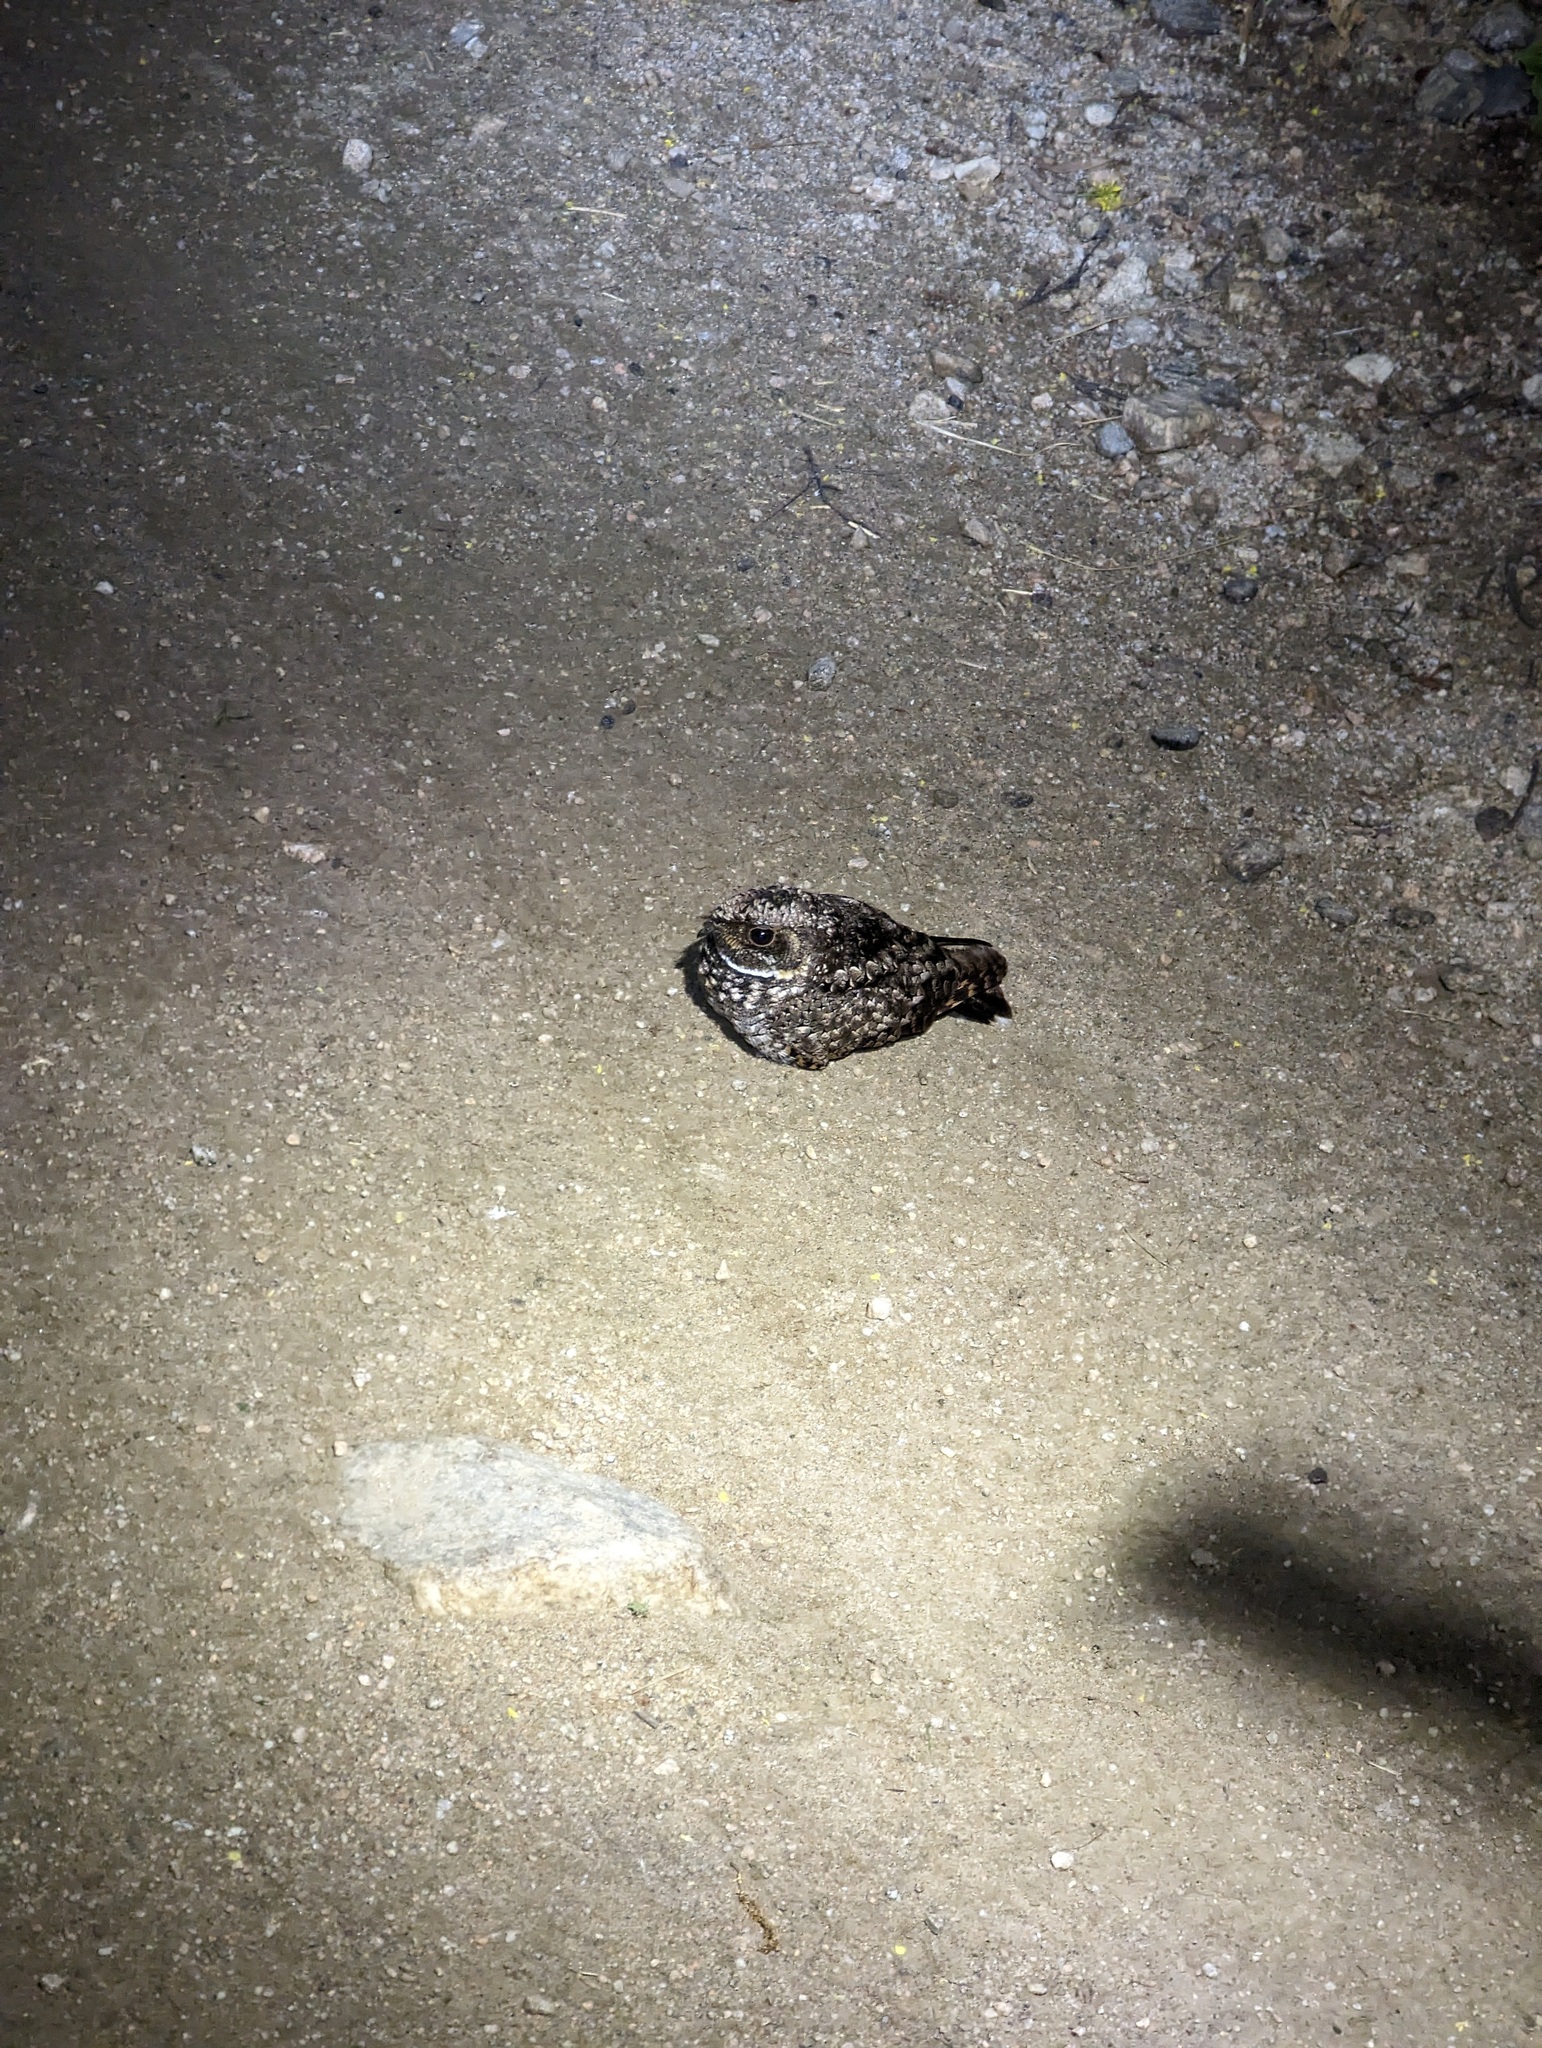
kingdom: Animalia
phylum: Chordata
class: Aves
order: Caprimulgiformes
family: Caprimulgidae
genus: Phalaenoptilus
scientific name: Phalaenoptilus nuttallii
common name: Common poorwill
